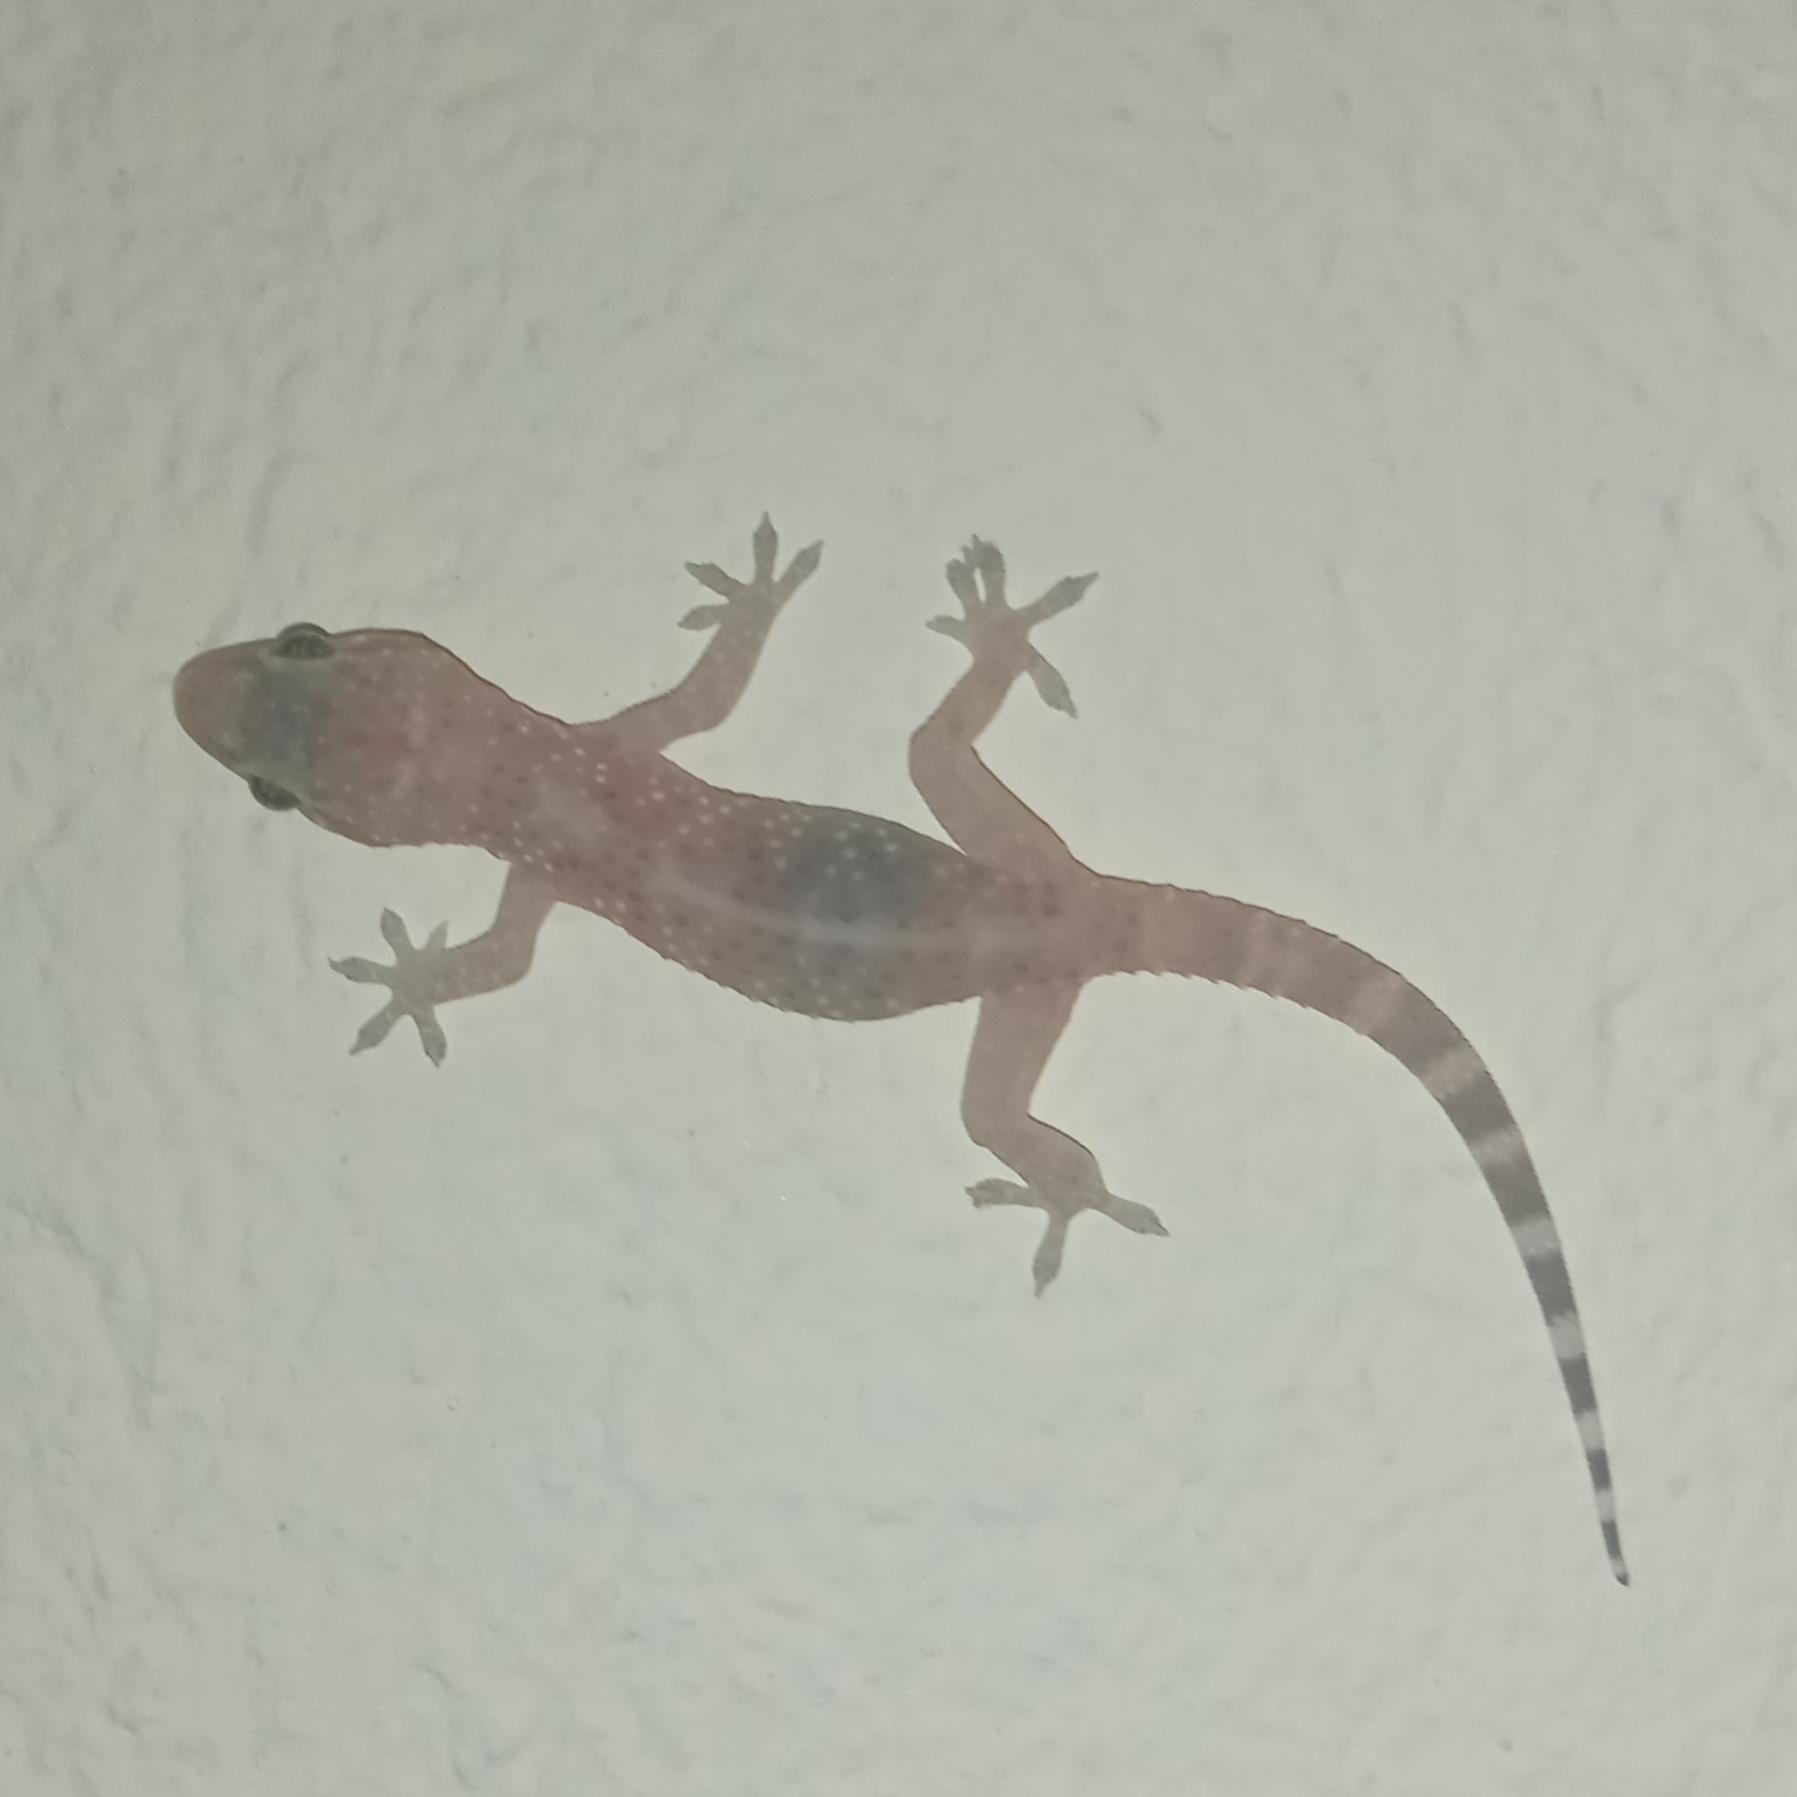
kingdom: Animalia
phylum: Chordata
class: Squamata
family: Gekkonidae
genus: Hemidactylus
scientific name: Hemidactylus turcicus
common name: Turkish gecko
